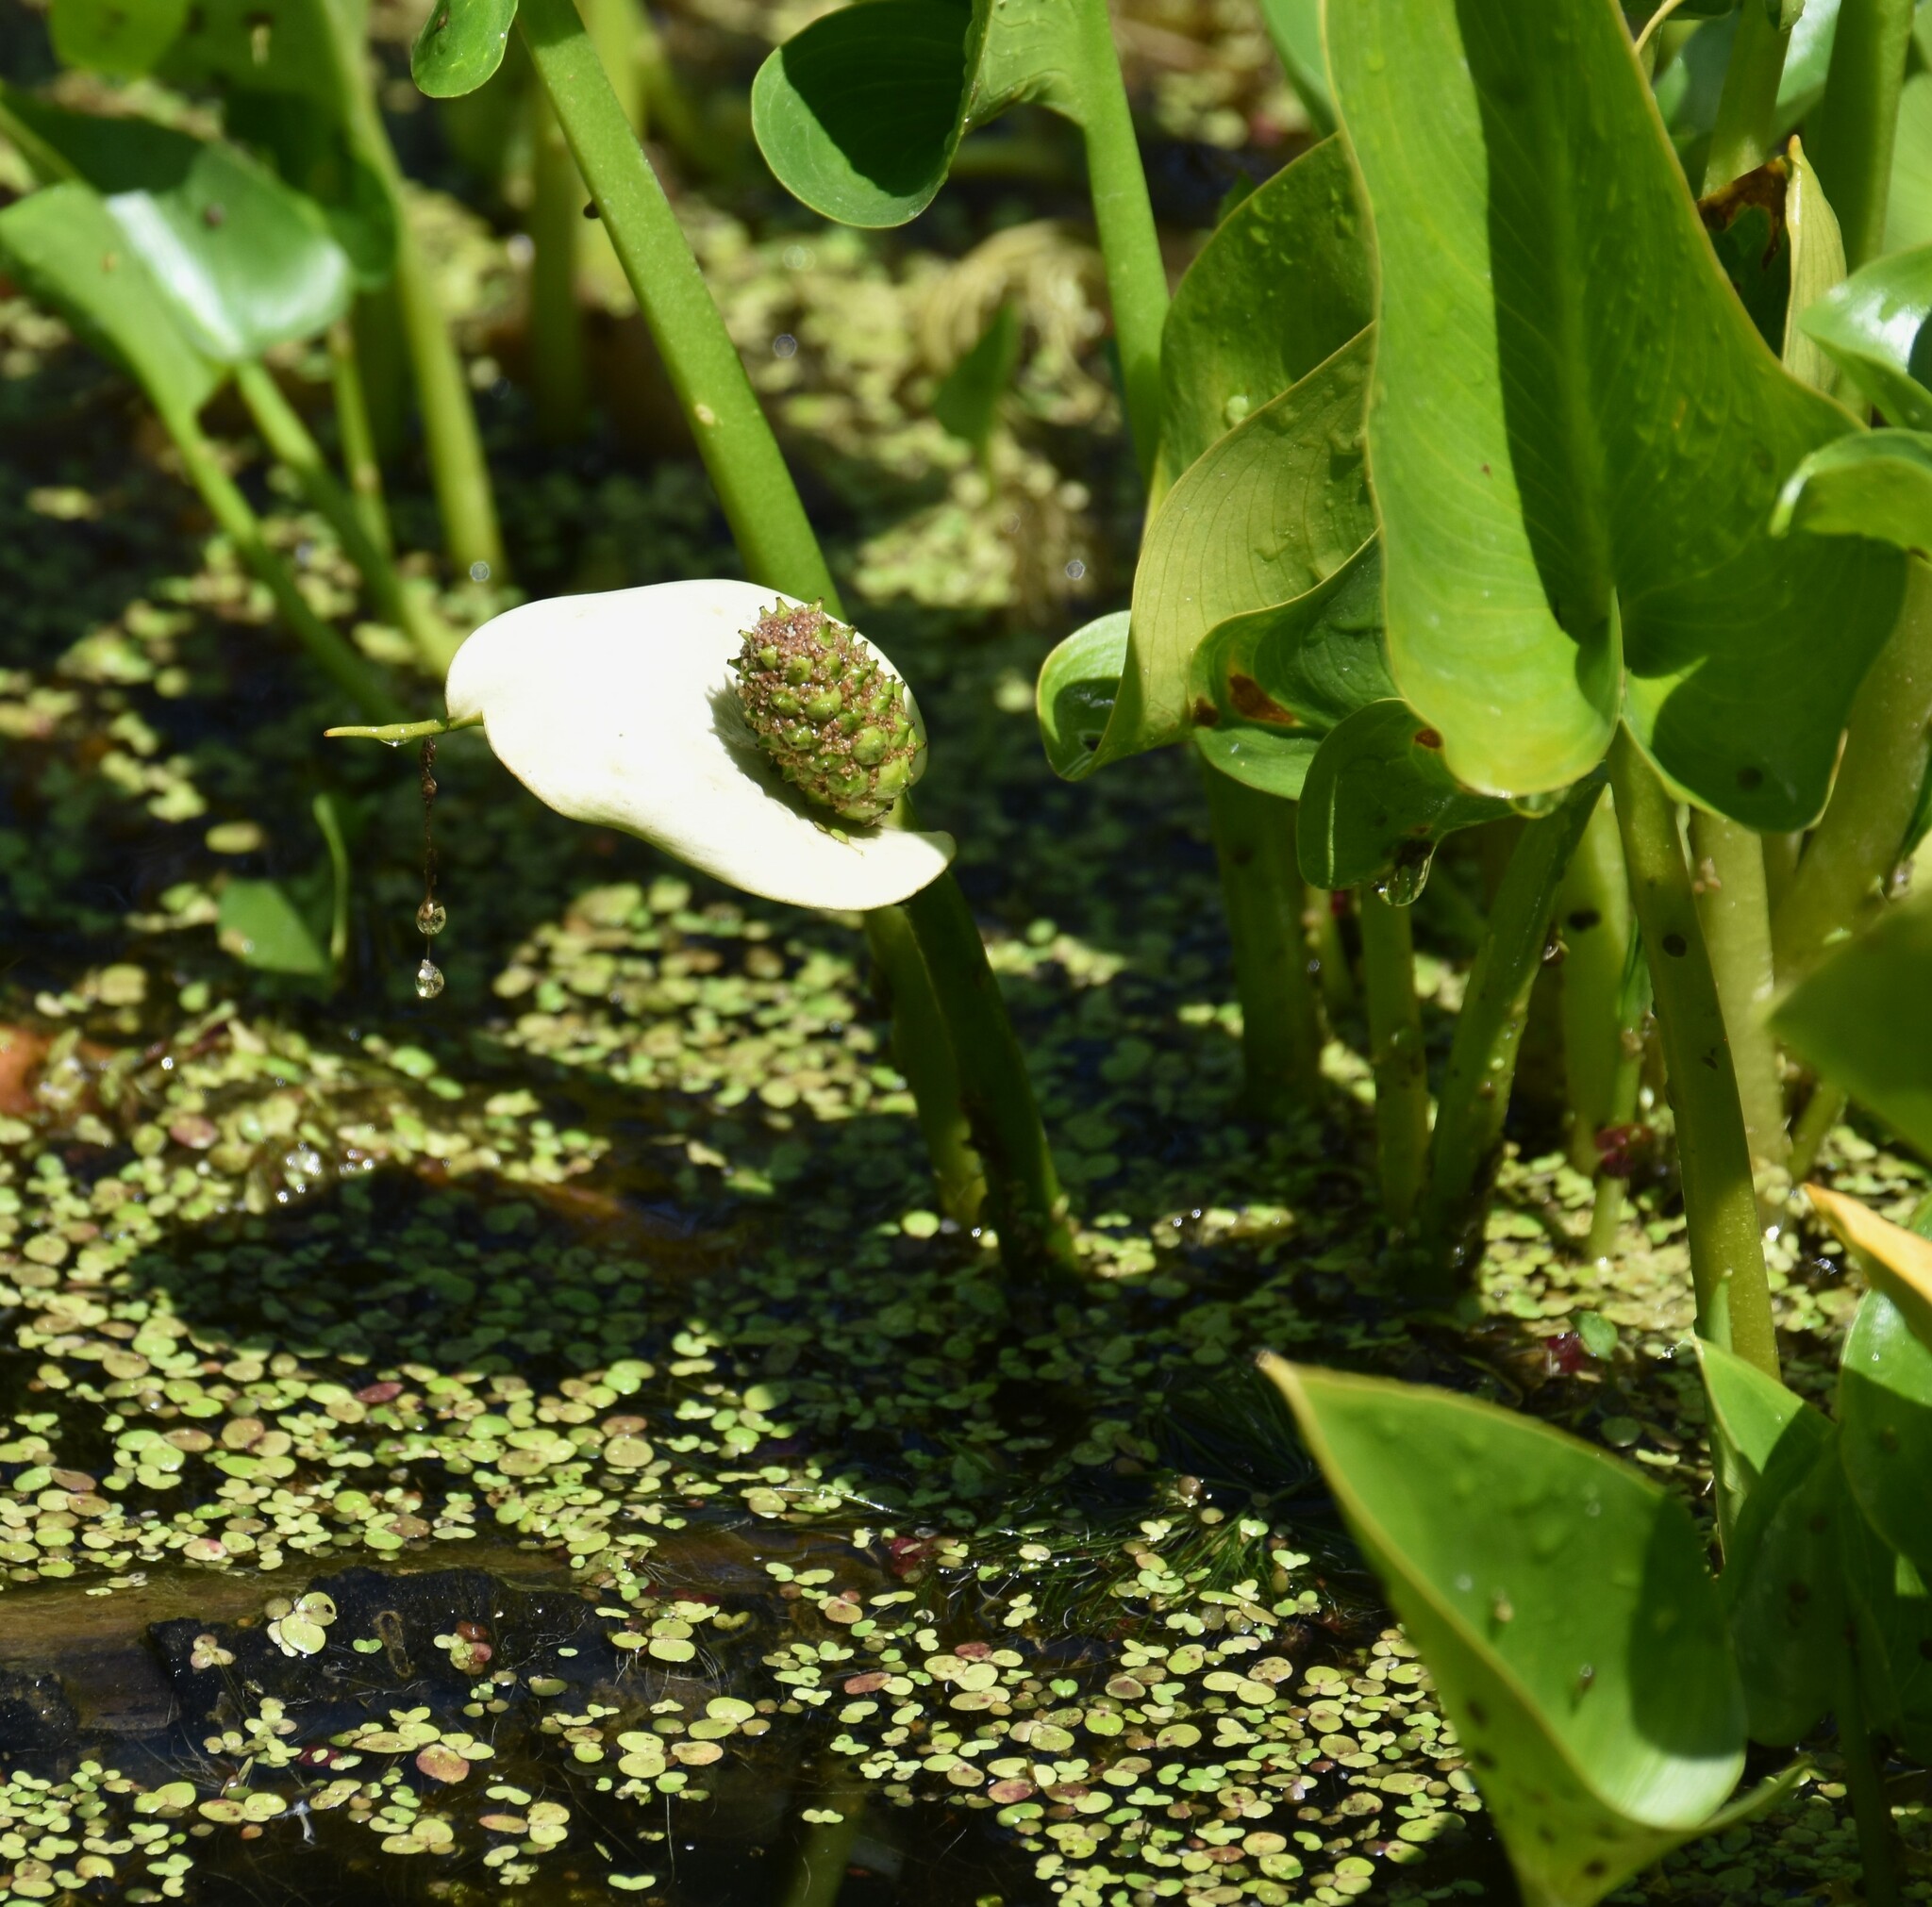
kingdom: Plantae
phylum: Tracheophyta
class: Liliopsida
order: Alismatales
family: Araceae
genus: Calla
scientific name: Calla palustris
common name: Bog arum
